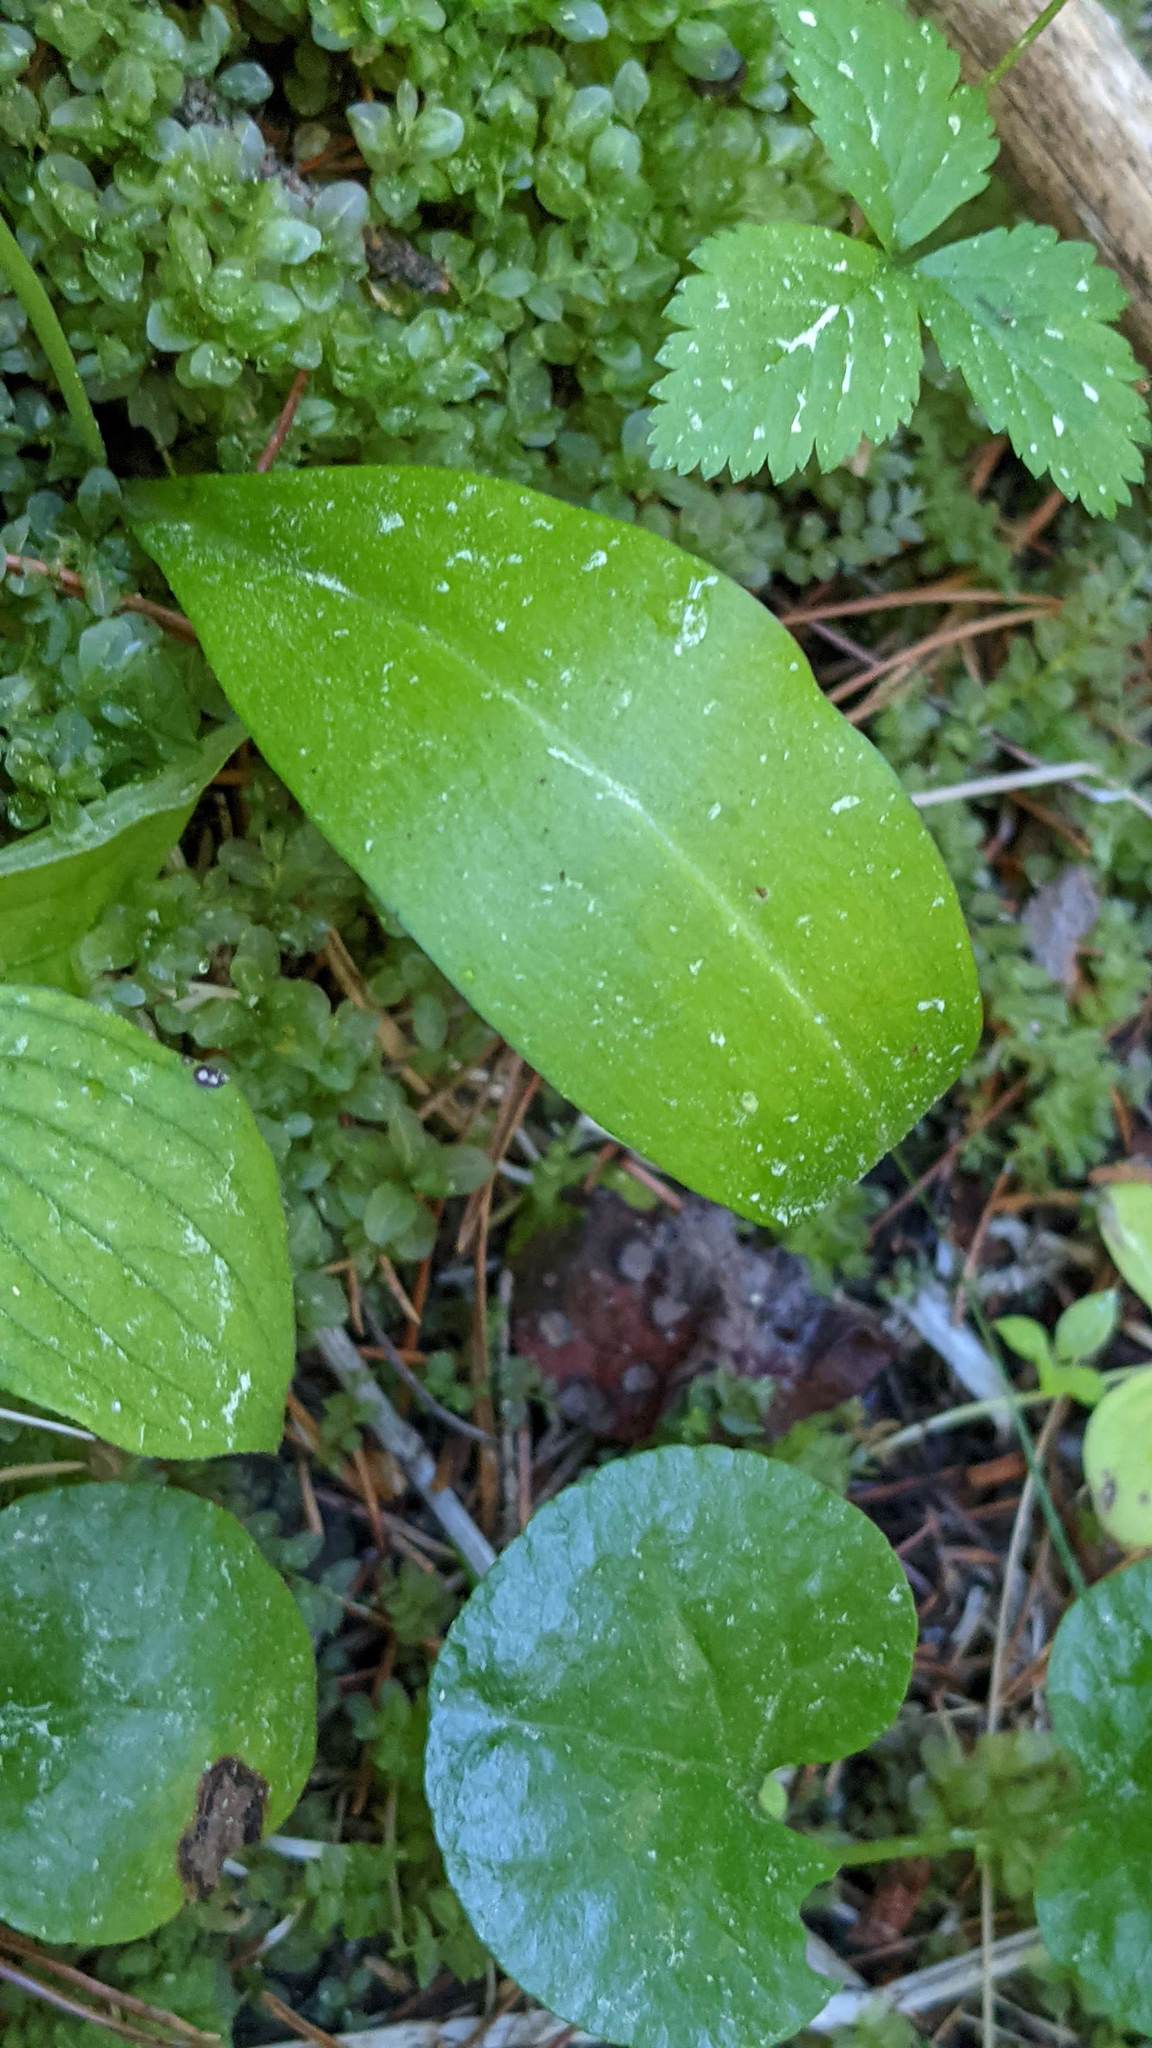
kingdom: Plantae
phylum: Tracheophyta
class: Liliopsida
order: Asparagales
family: Orchidaceae
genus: Platanthera
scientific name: Platanthera obtusata
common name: Blunt bog orchid
